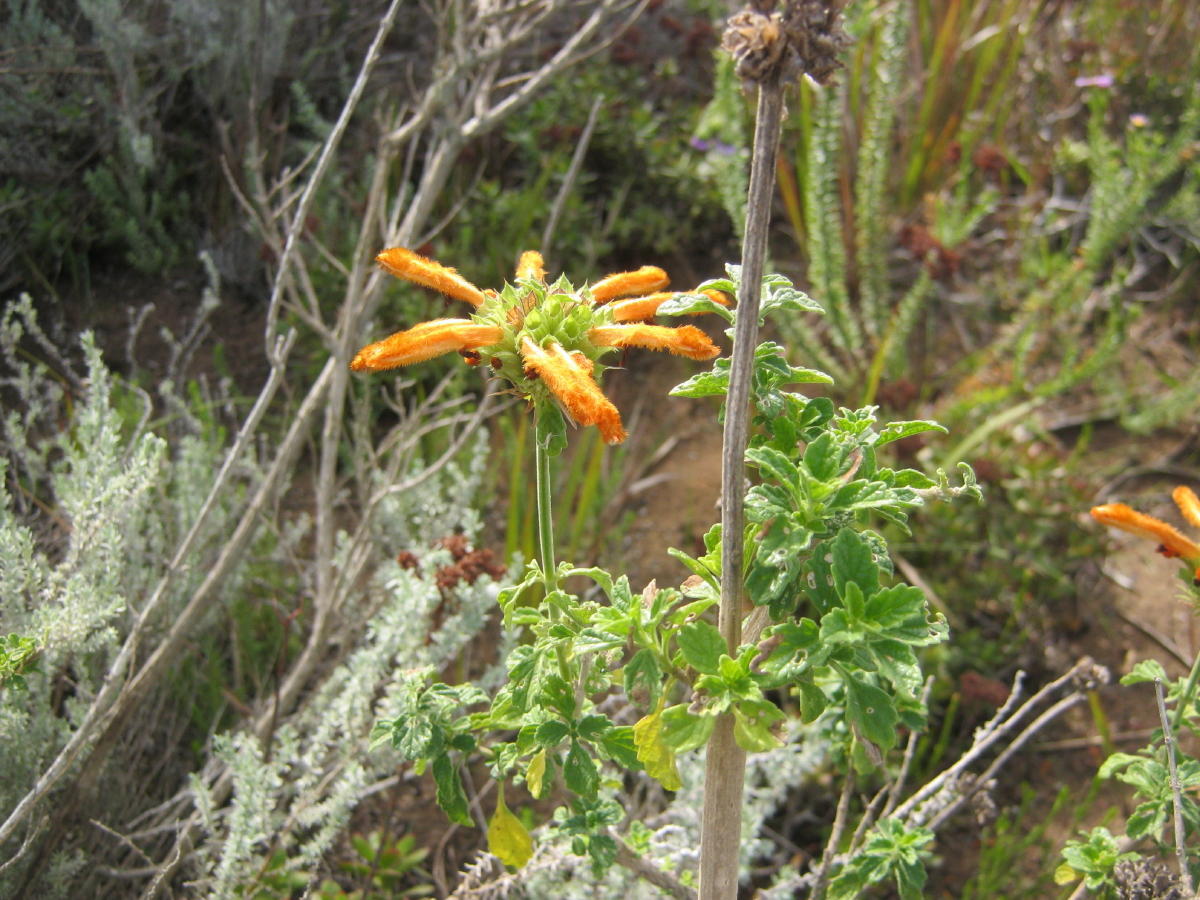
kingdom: Plantae
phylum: Tracheophyta
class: Magnoliopsida
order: Lamiales
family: Lamiaceae
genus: Leonotis
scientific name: Leonotis ocymifolia
